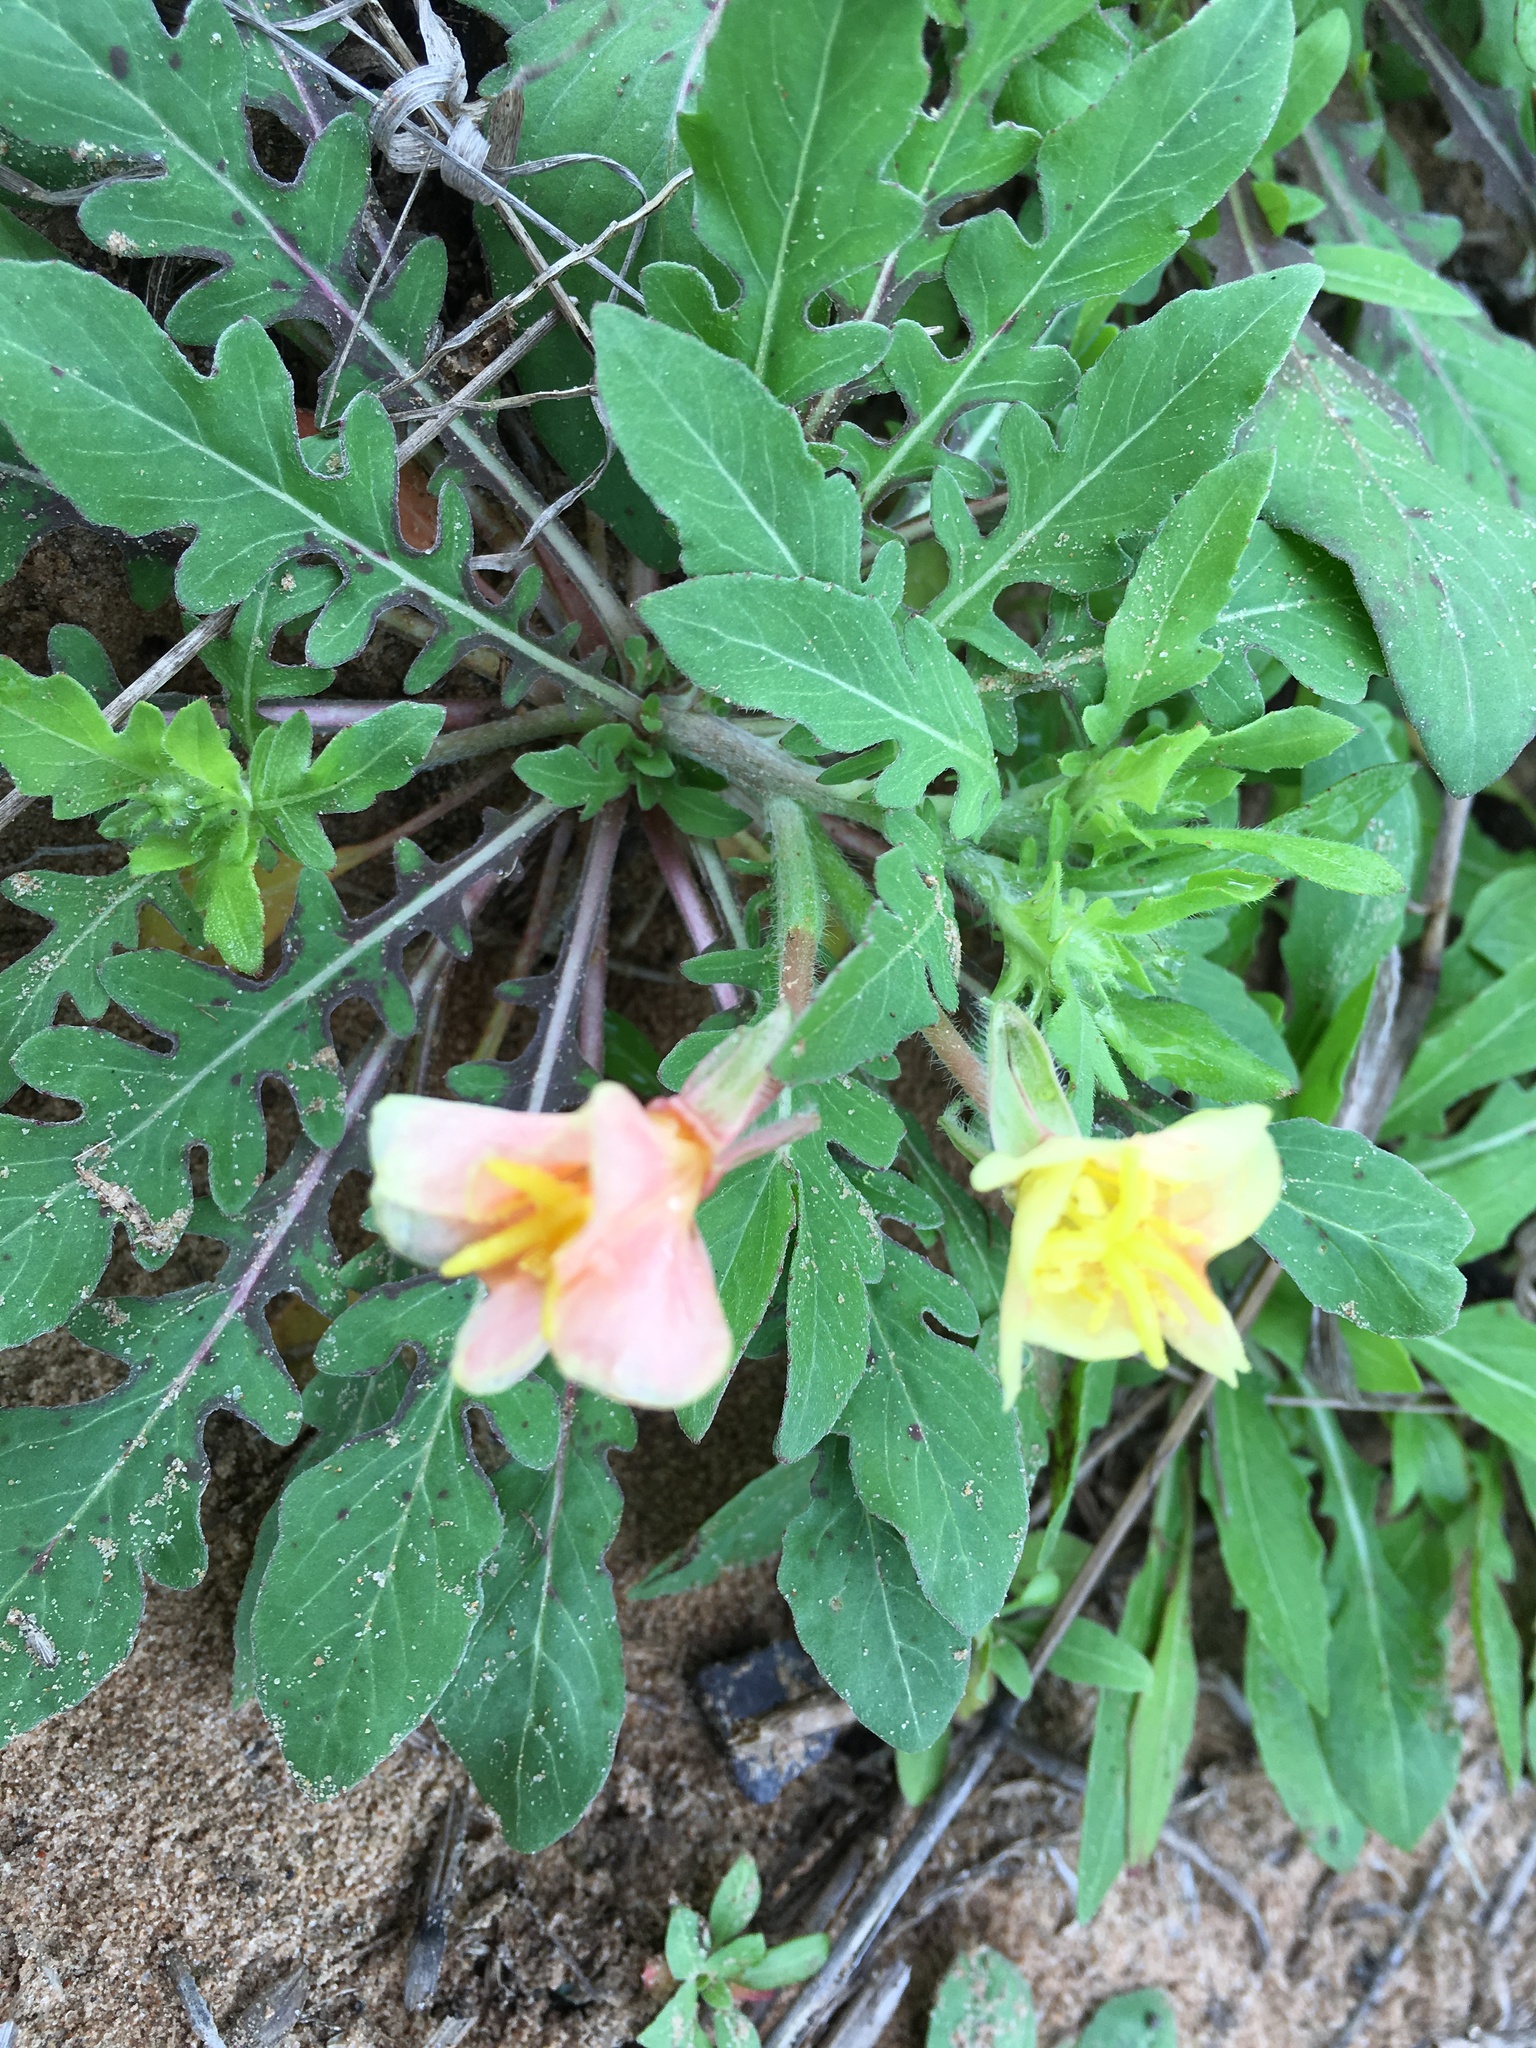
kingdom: Plantae
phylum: Tracheophyta
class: Magnoliopsida
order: Myrtales
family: Onagraceae
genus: Oenothera
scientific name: Oenothera laciniata
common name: Cut-leaved evening-primrose
